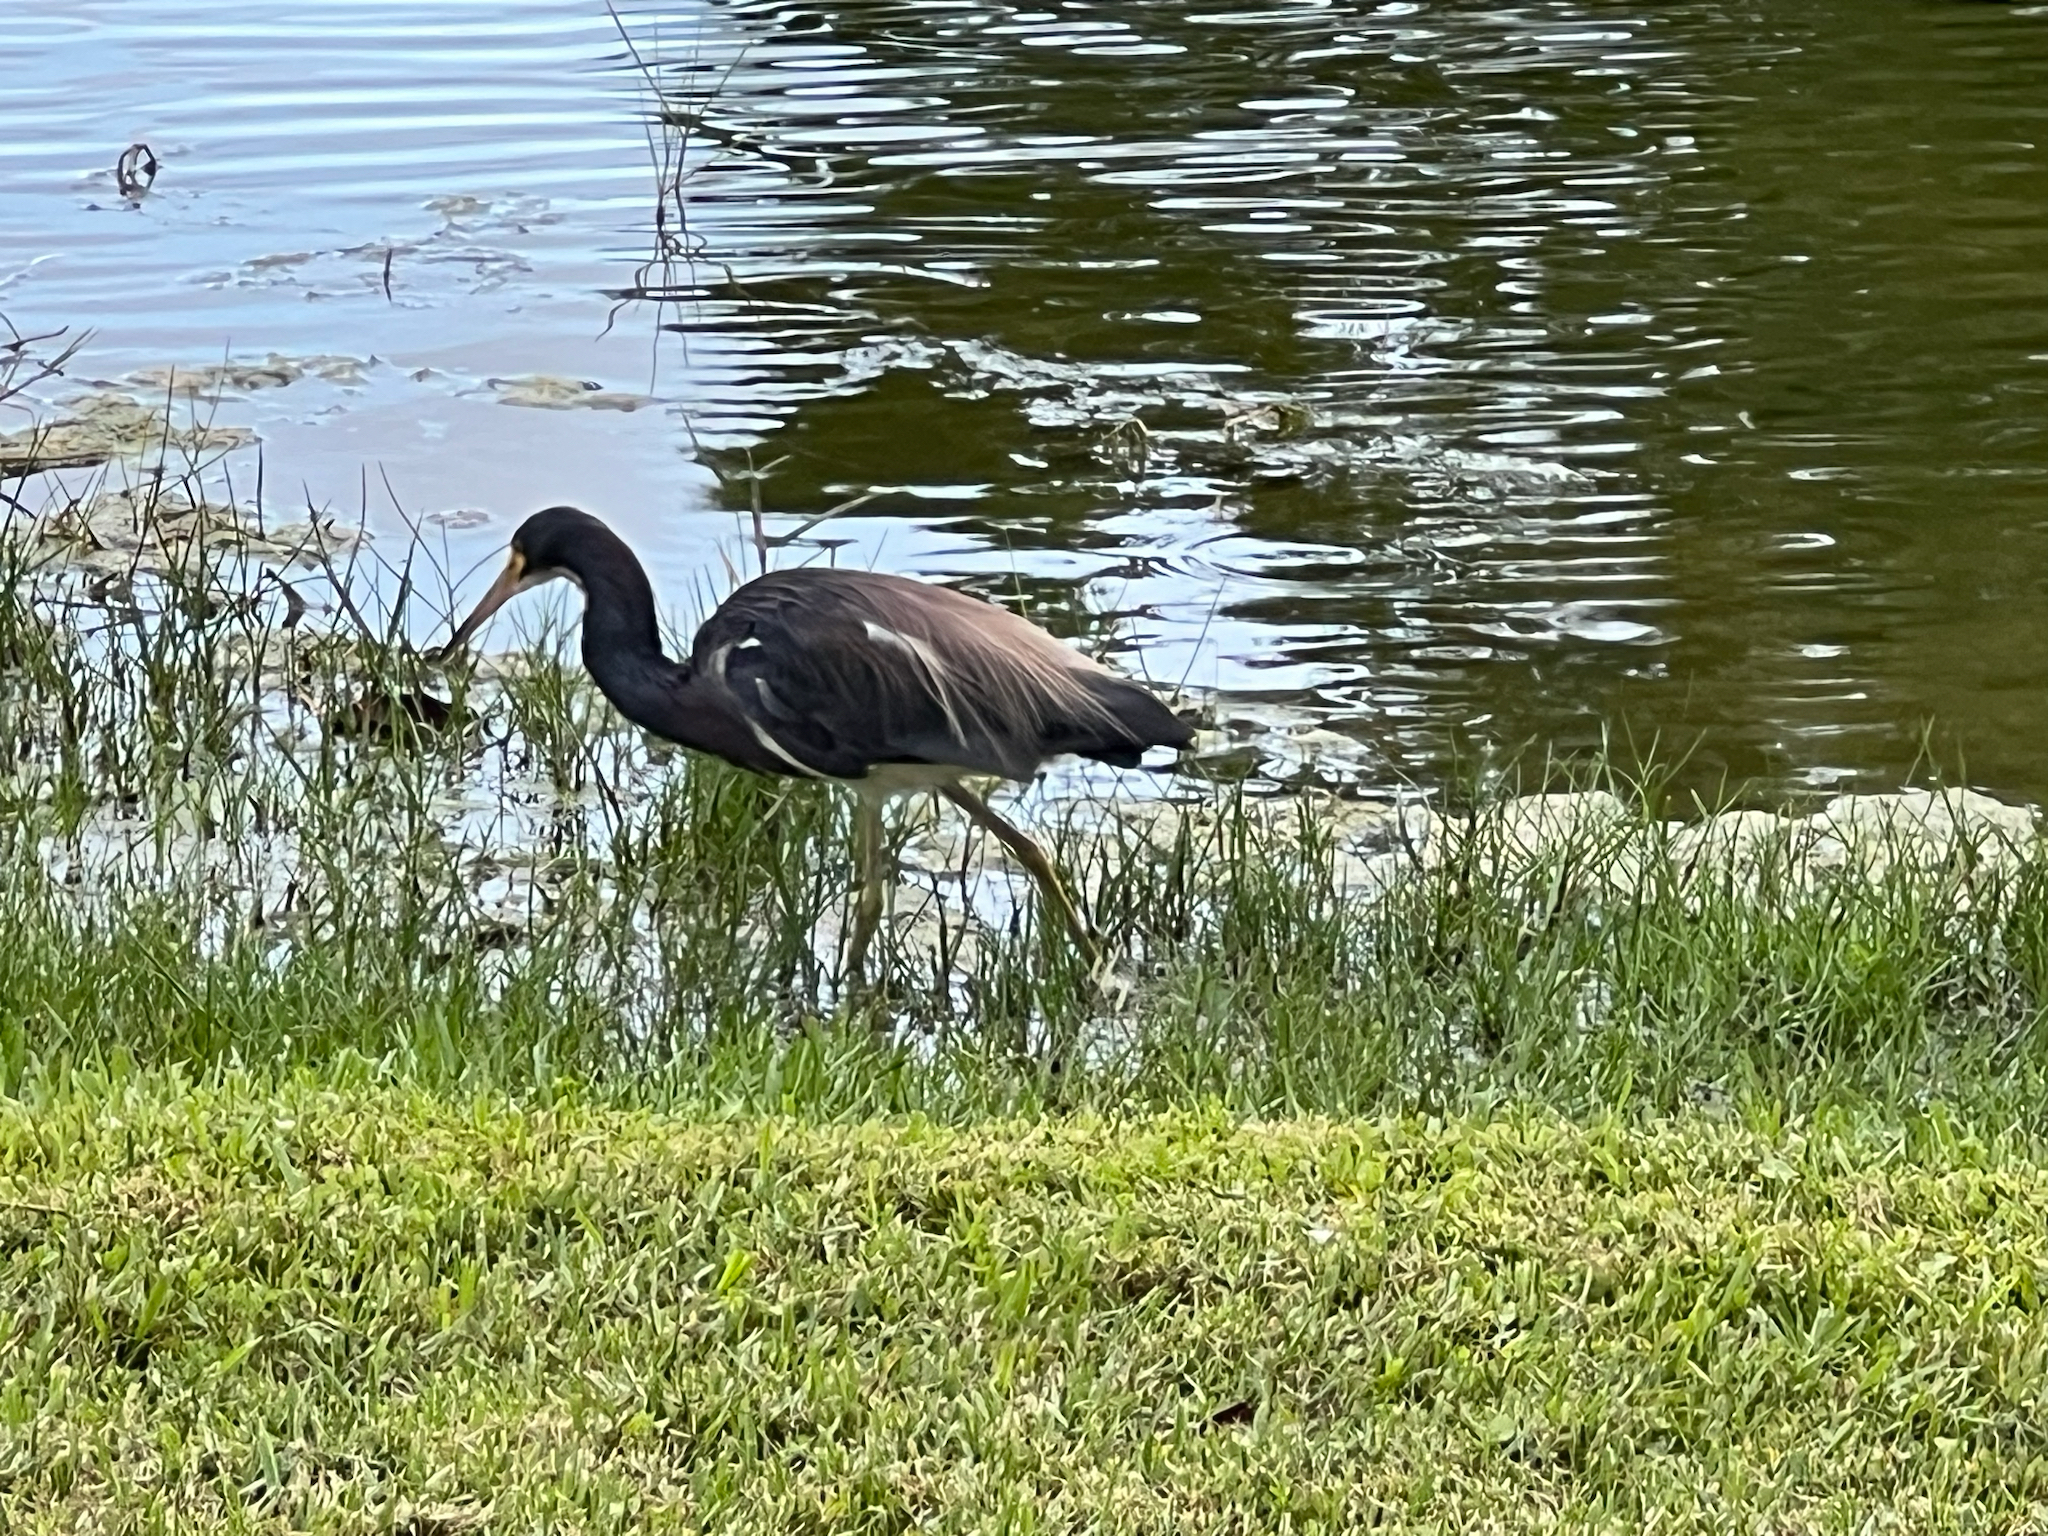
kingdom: Animalia
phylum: Chordata
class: Aves
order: Pelecaniformes
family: Ardeidae
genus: Egretta
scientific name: Egretta tricolor
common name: Tricolored heron
